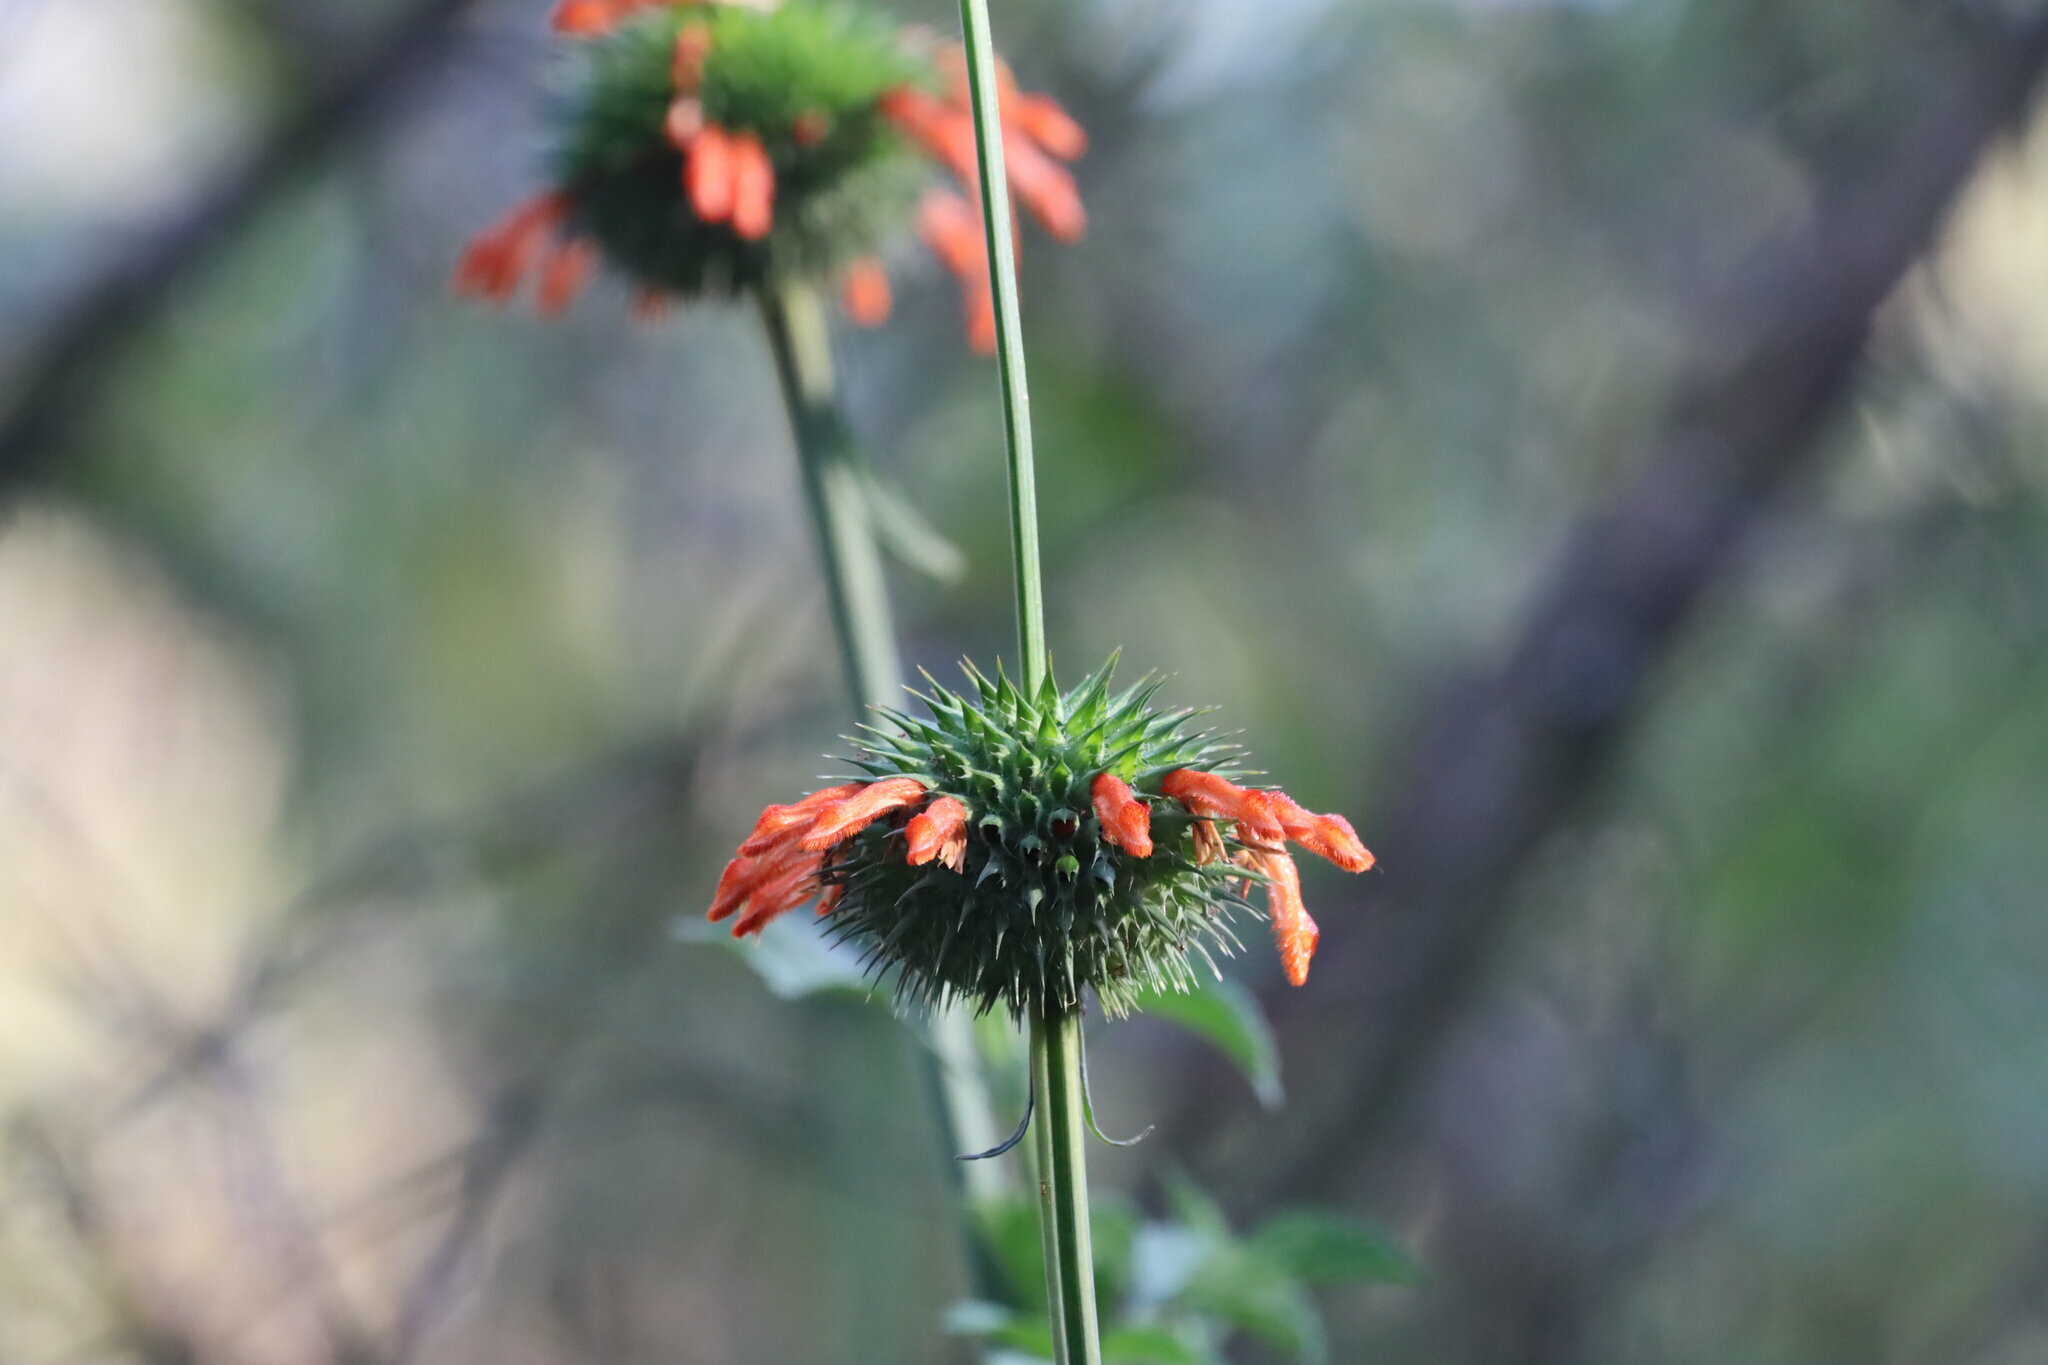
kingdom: Plantae
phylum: Tracheophyta
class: Magnoliopsida
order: Lamiales
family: Lamiaceae
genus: Leonotis
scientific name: Leonotis nepetifolia
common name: Christmas candlestick
